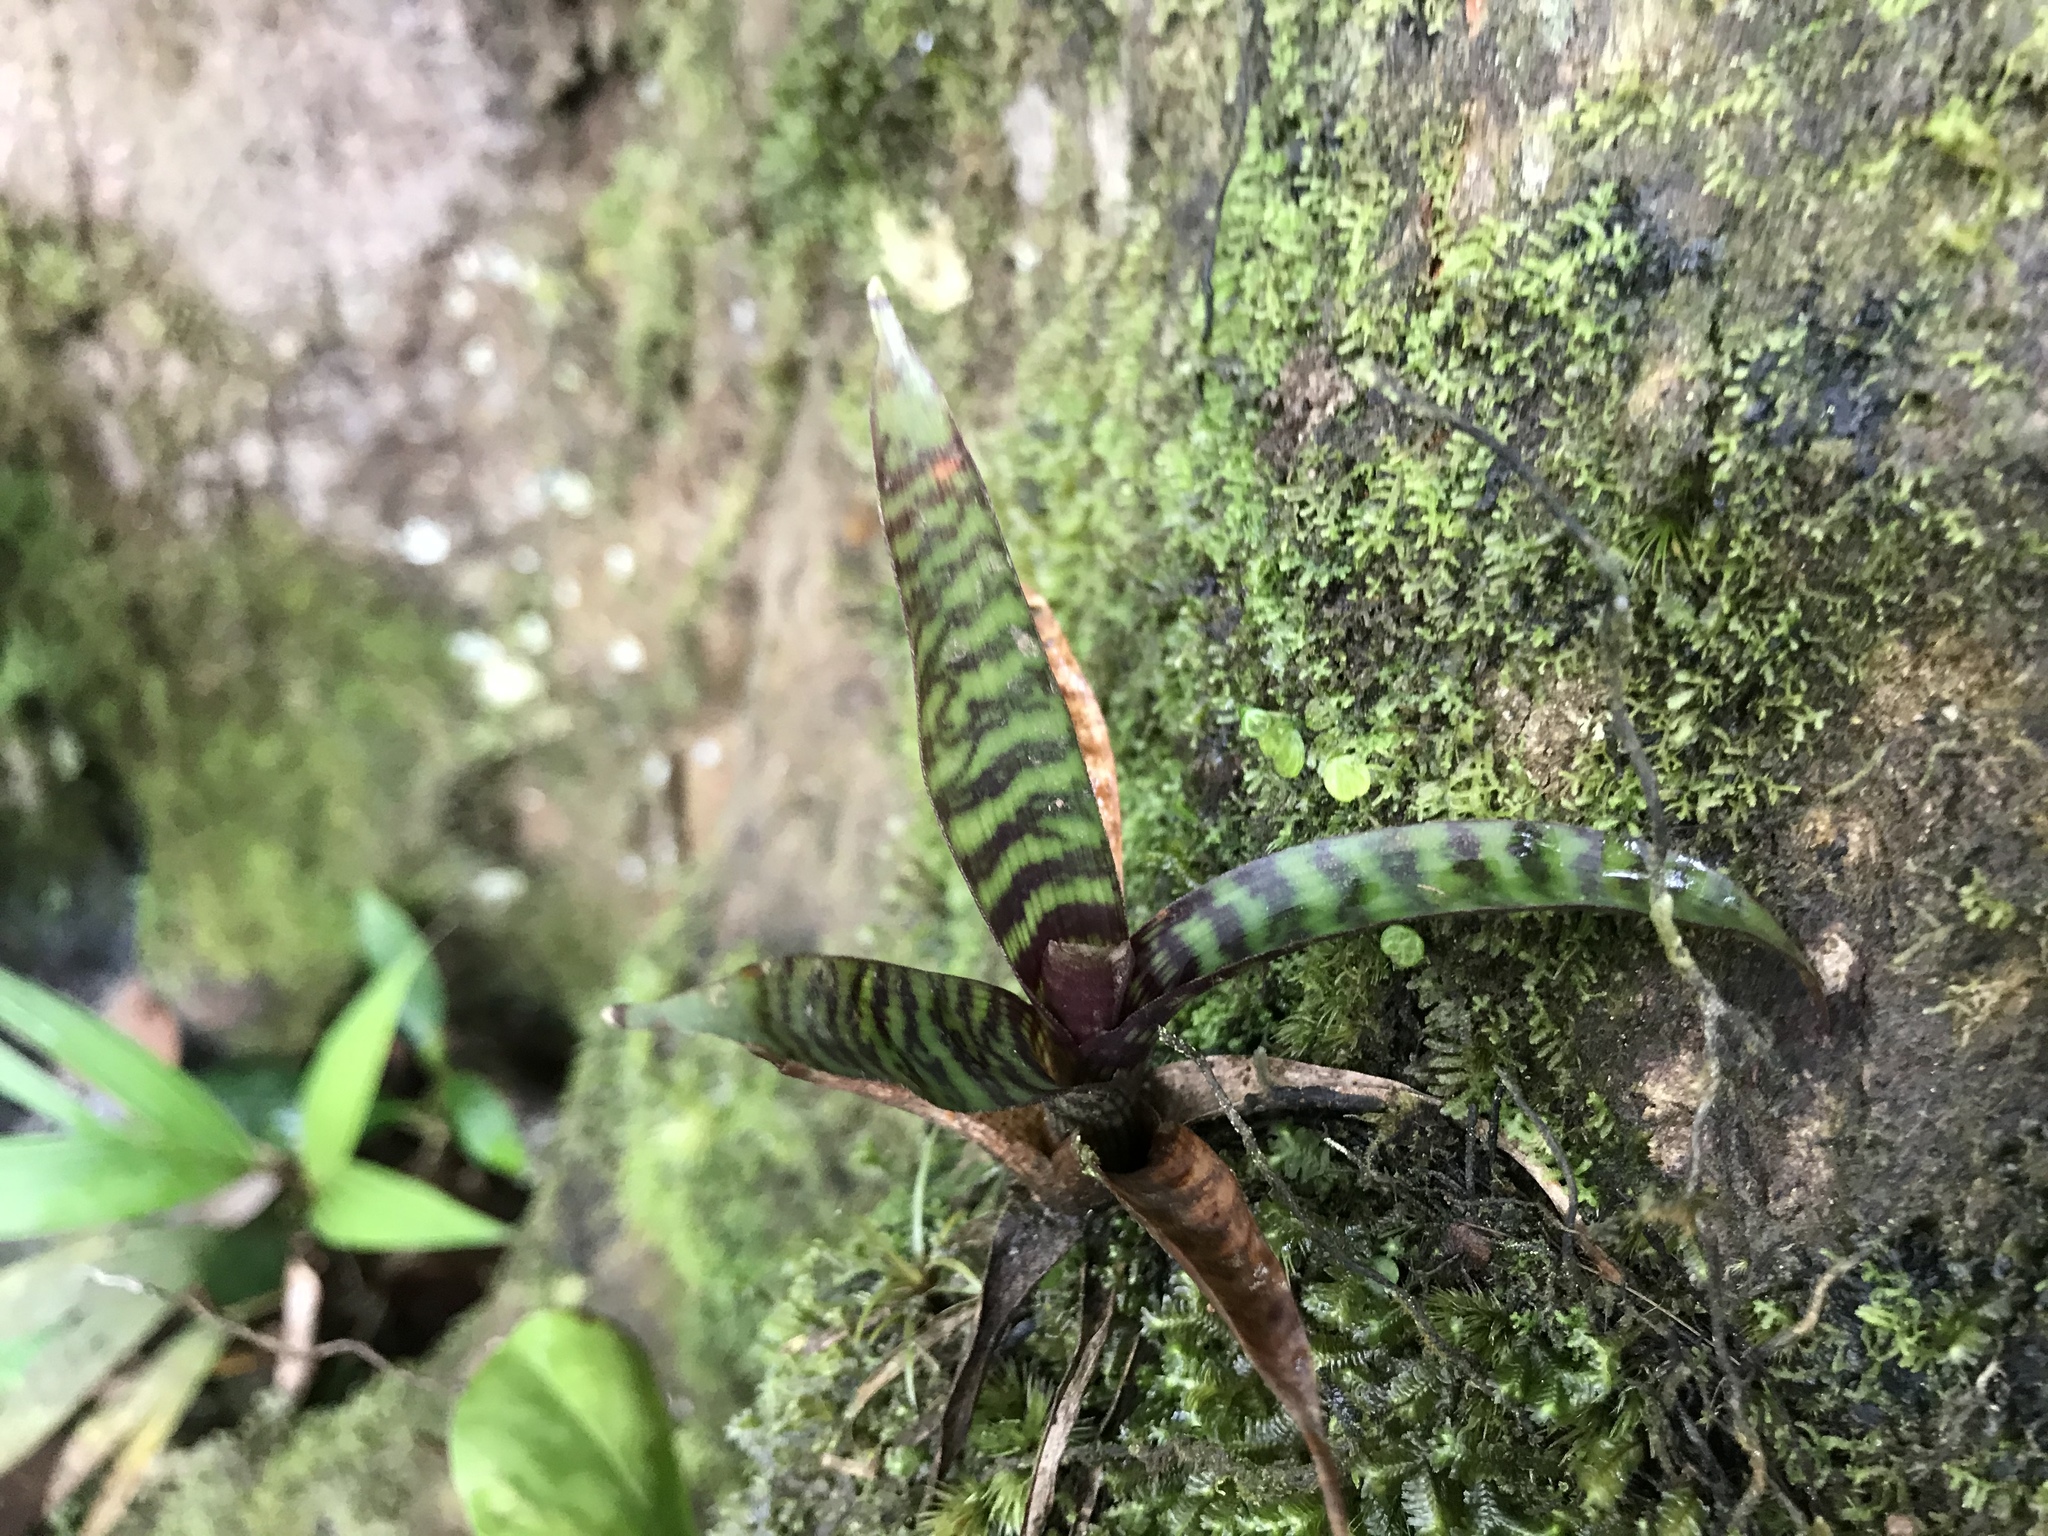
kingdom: Plantae
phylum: Tracheophyta
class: Liliopsida
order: Poales
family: Bromeliaceae
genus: Guzmania
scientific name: Guzmania musaica
